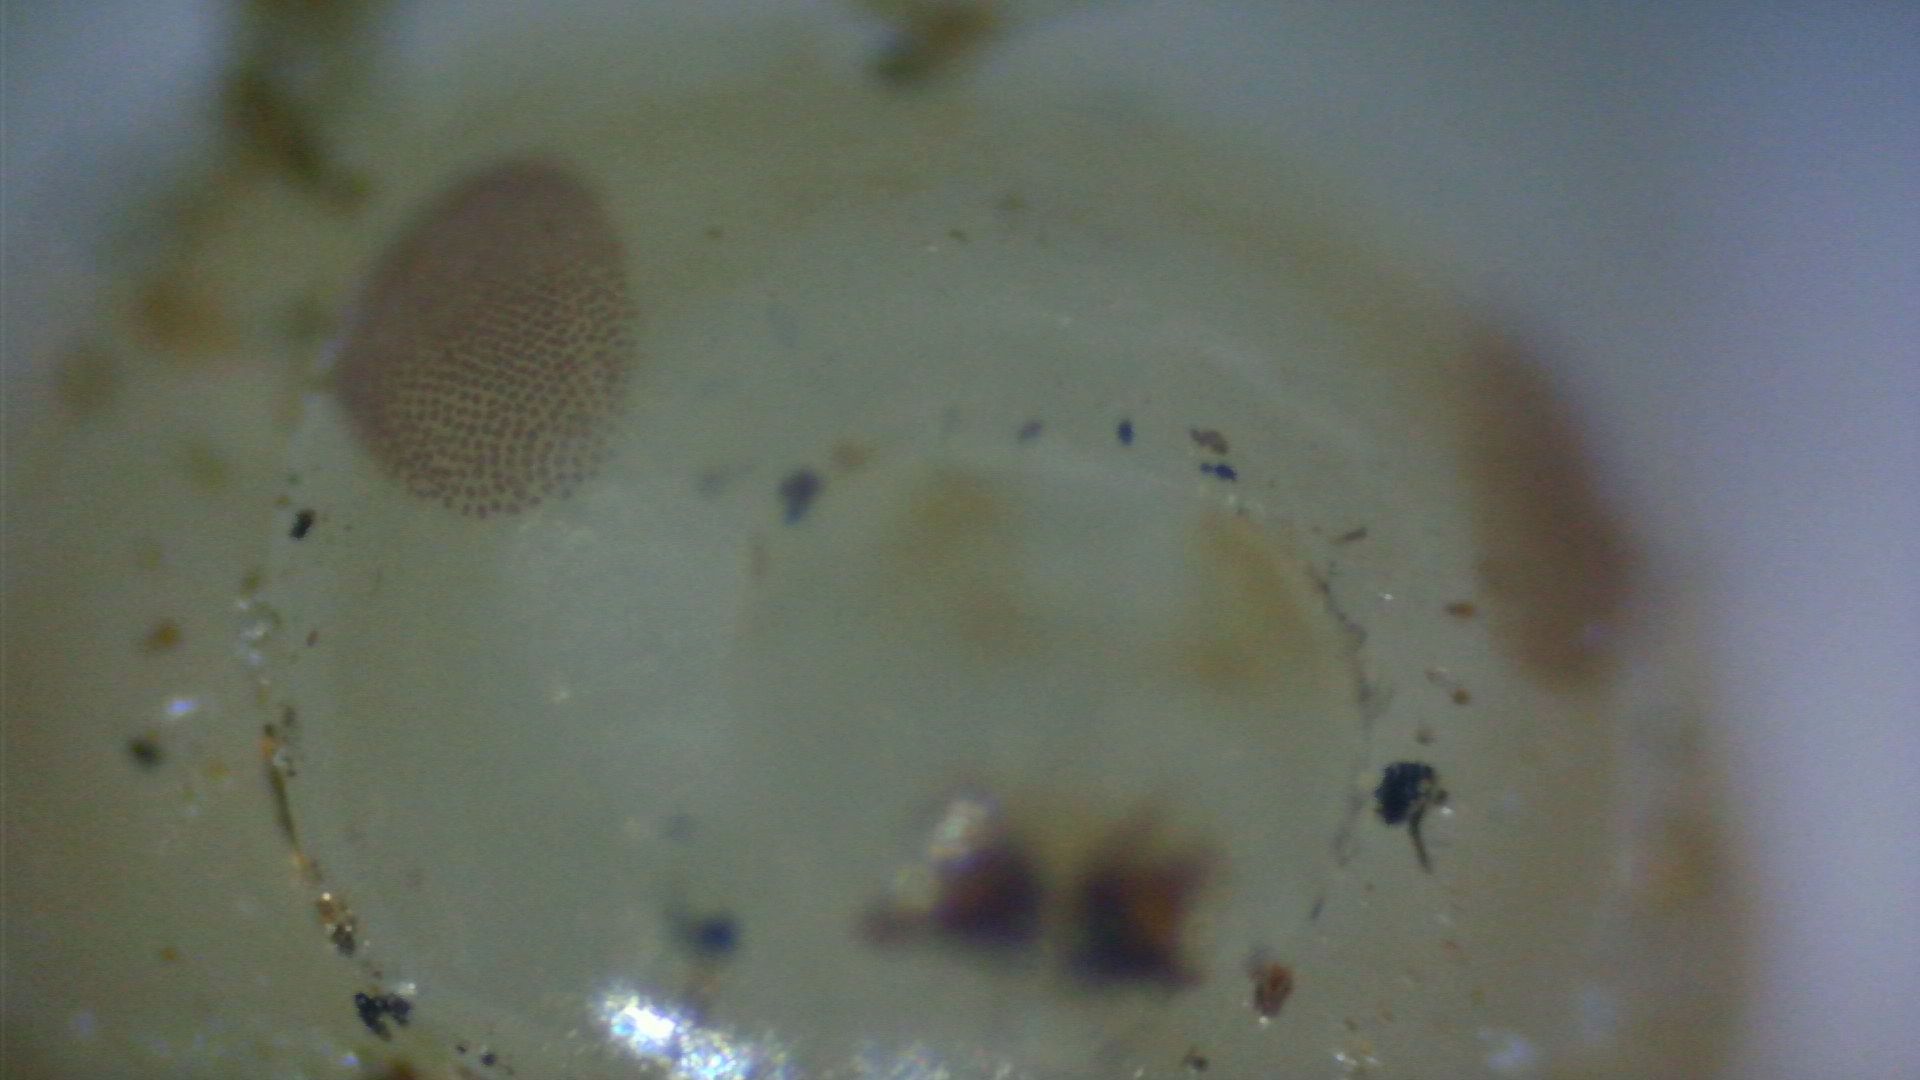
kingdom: Animalia
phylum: Arthropoda
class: Insecta
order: Hymenoptera
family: Cynipidae
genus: Diplolepis
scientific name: Diplolepis rosae
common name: Bedeguar gall
